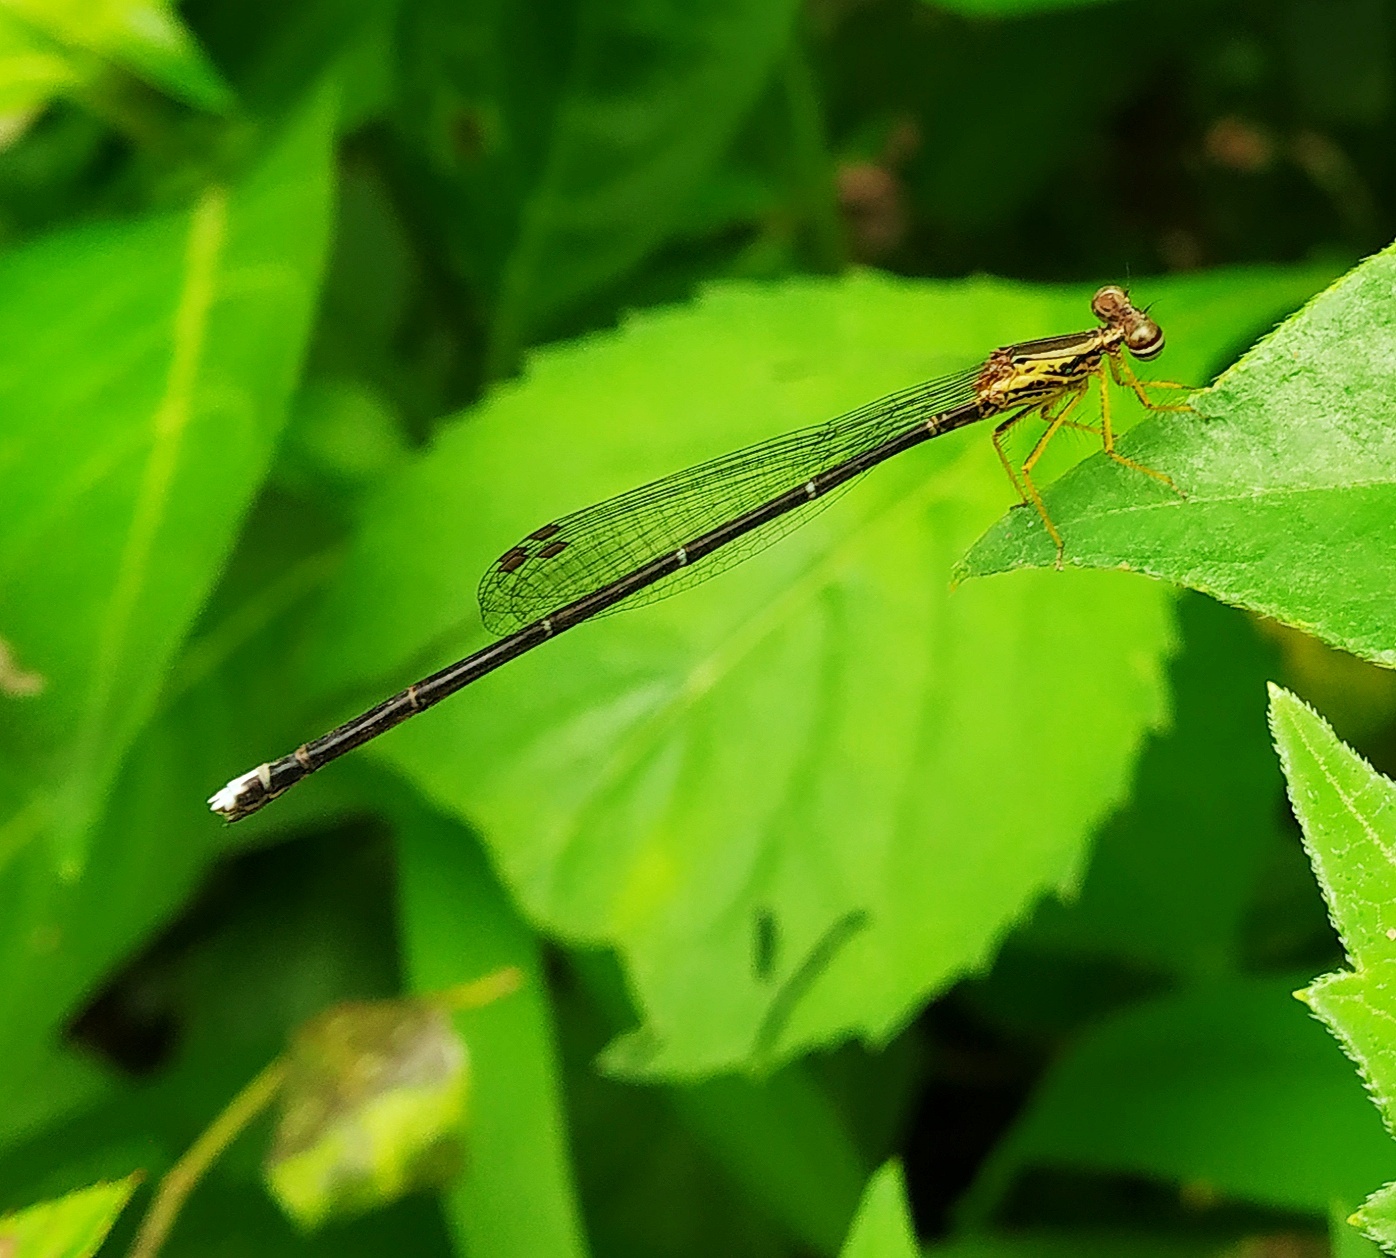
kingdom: Animalia
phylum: Arthropoda
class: Insecta
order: Odonata
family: Platycnemididae
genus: Copera
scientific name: Copera marginipes
